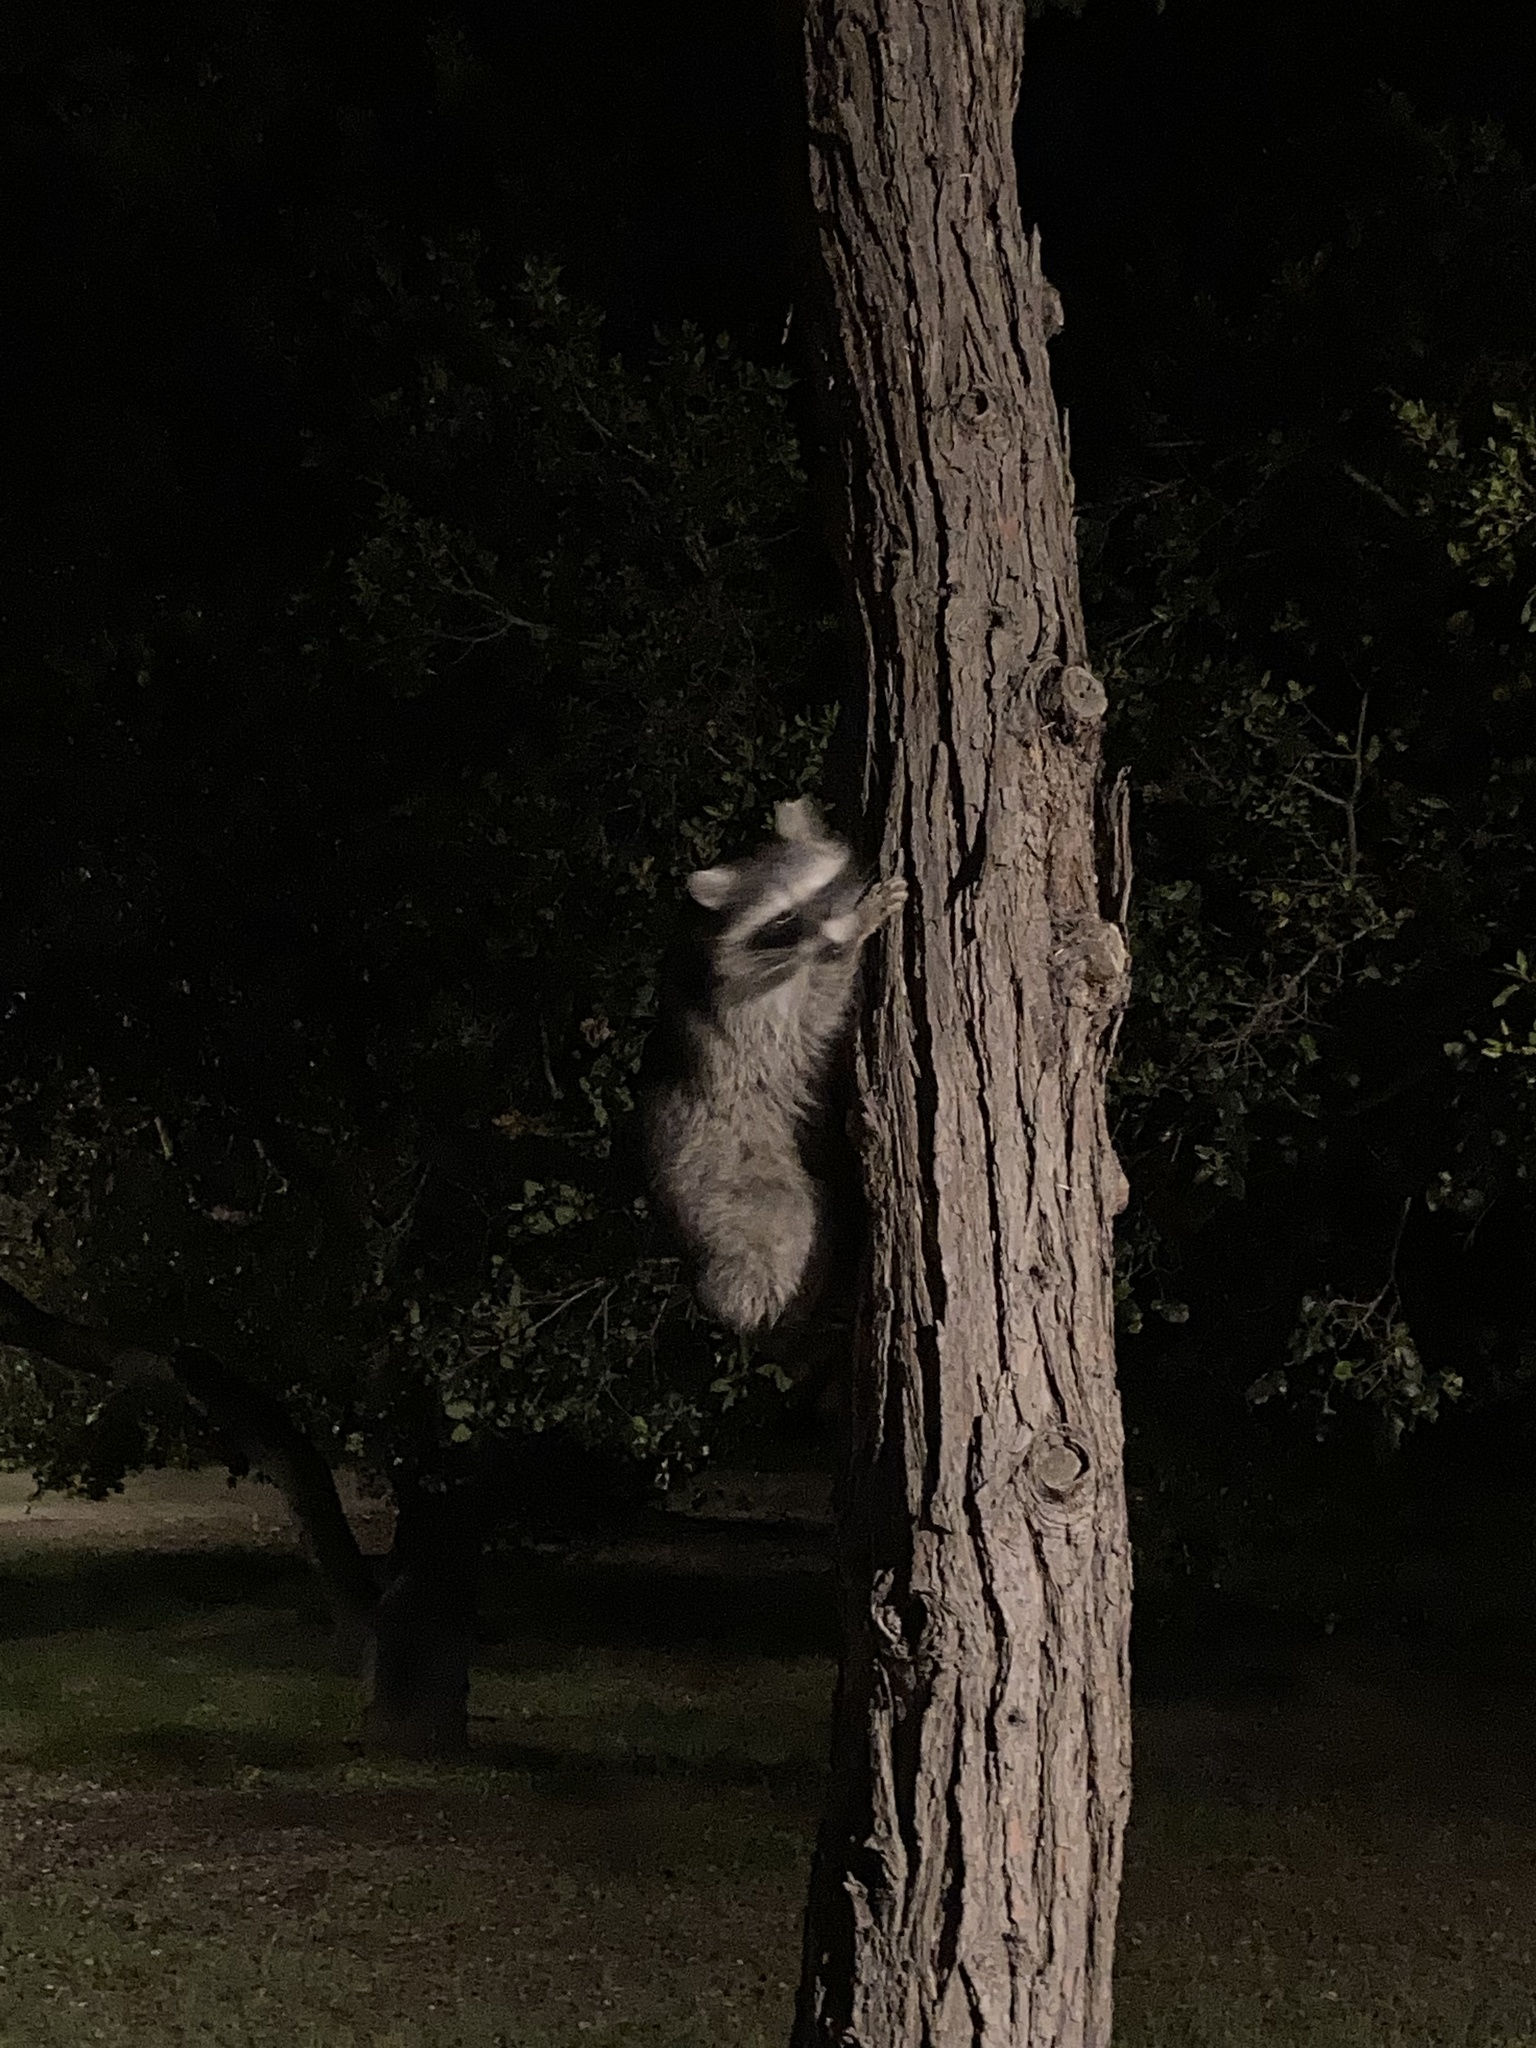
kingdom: Animalia
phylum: Chordata
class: Mammalia
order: Carnivora
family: Procyonidae
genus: Procyon
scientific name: Procyon lotor
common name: Raccoon
